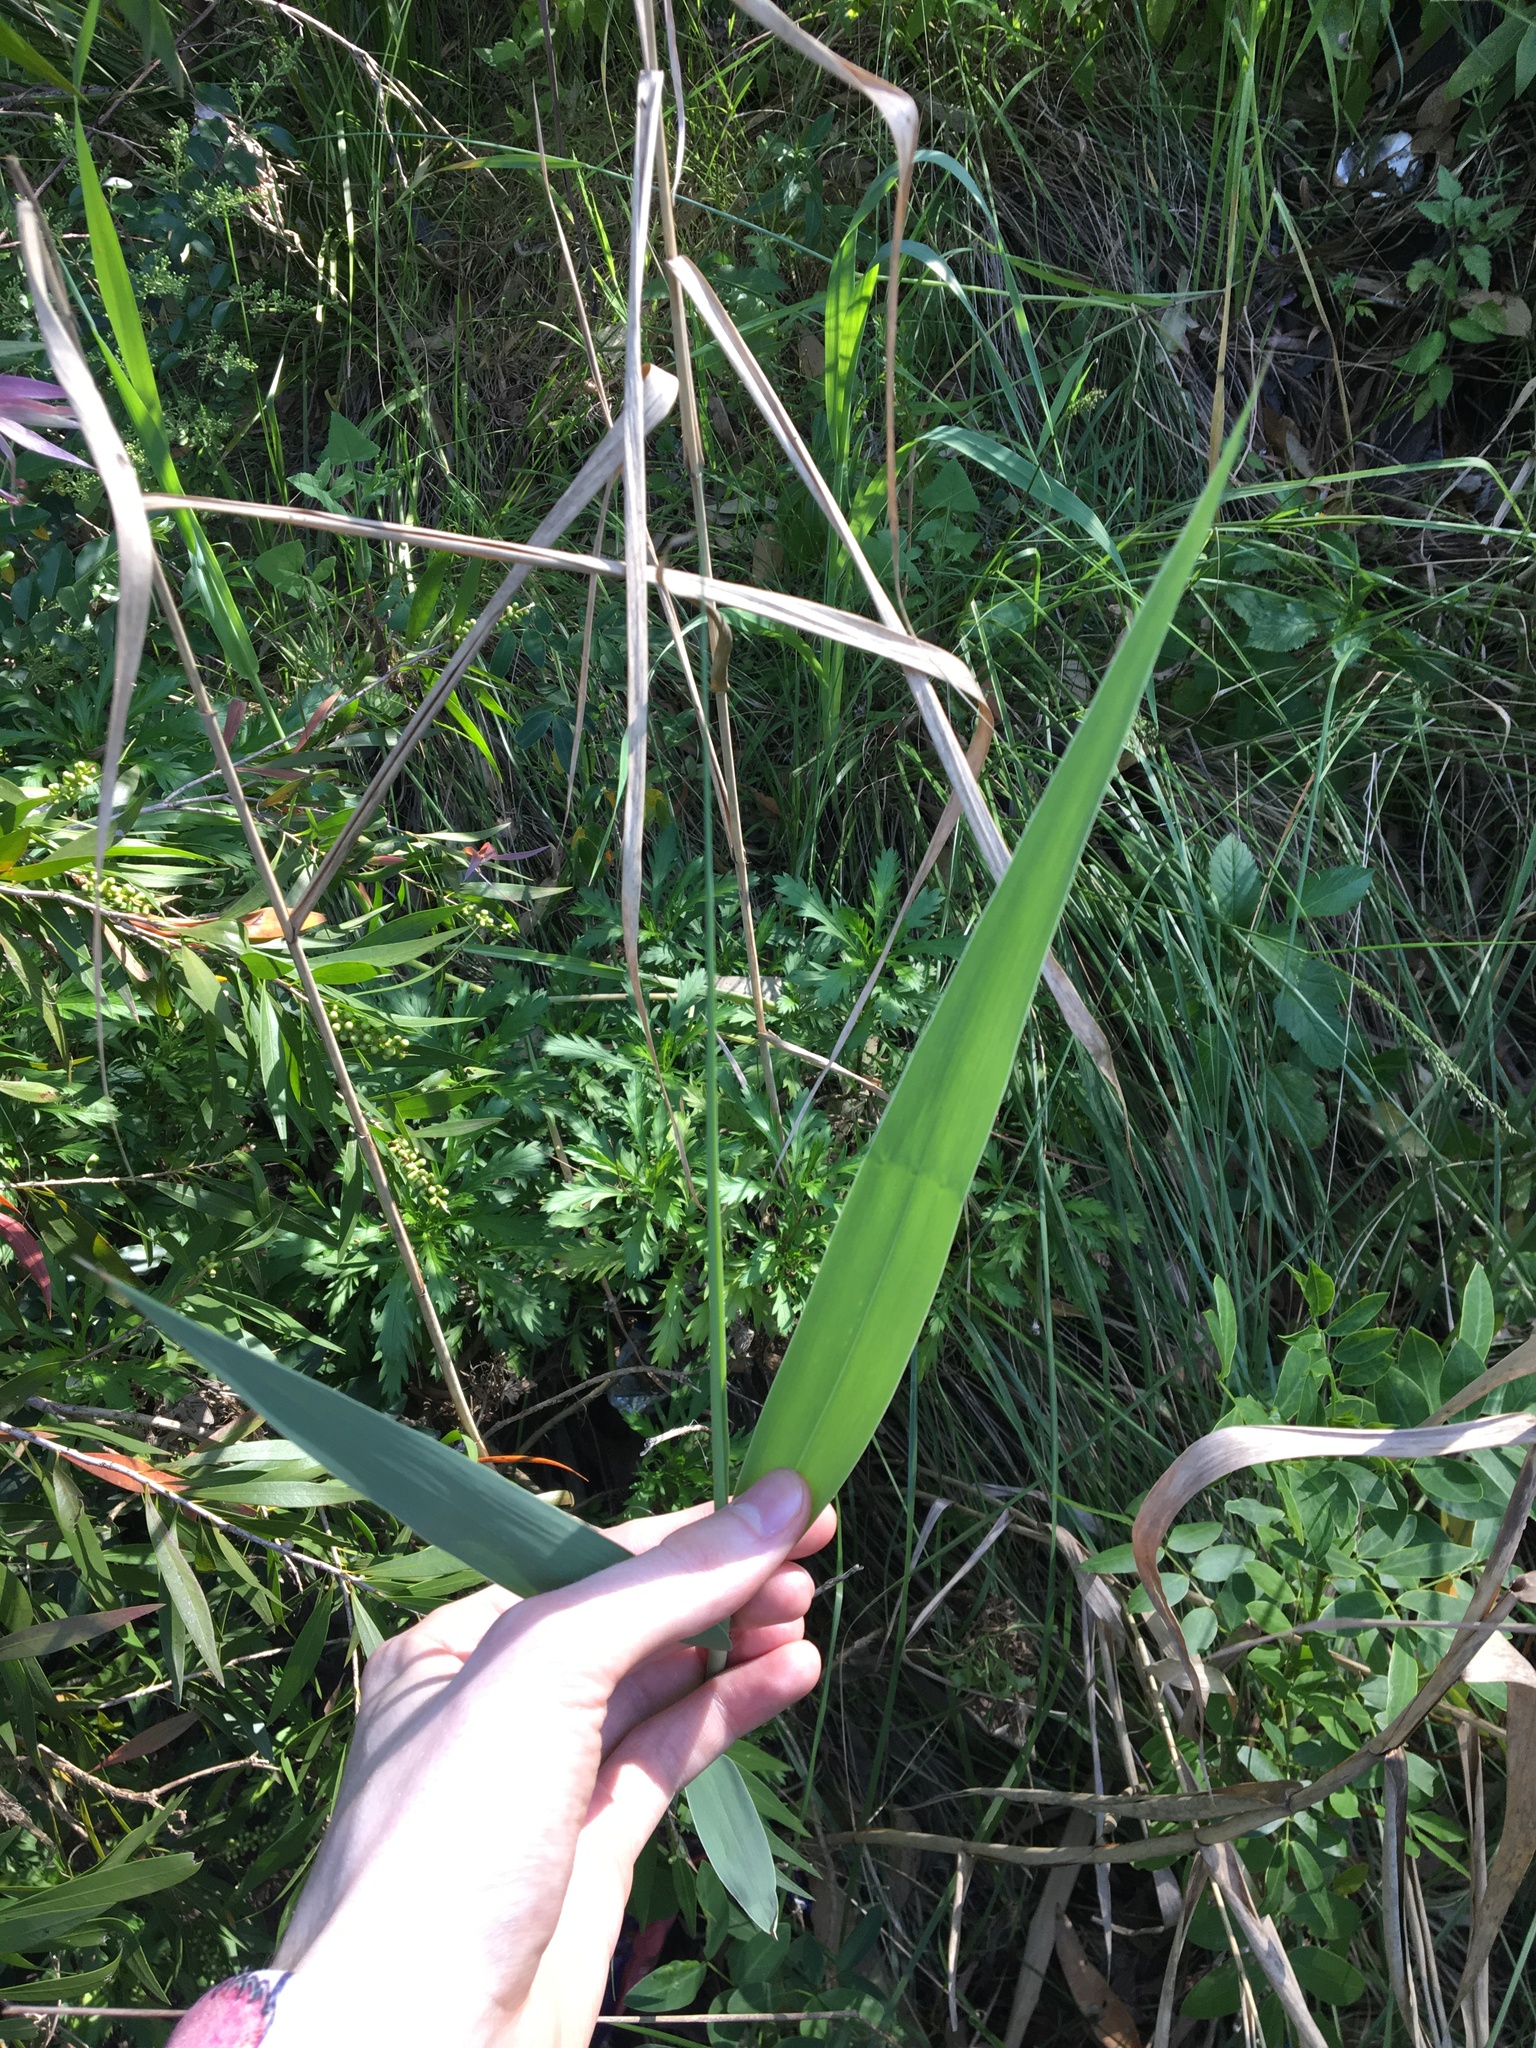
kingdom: Plantae
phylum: Tracheophyta
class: Liliopsida
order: Poales
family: Poaceae
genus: Phragmites
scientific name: Phragmites australis
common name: Common reed
